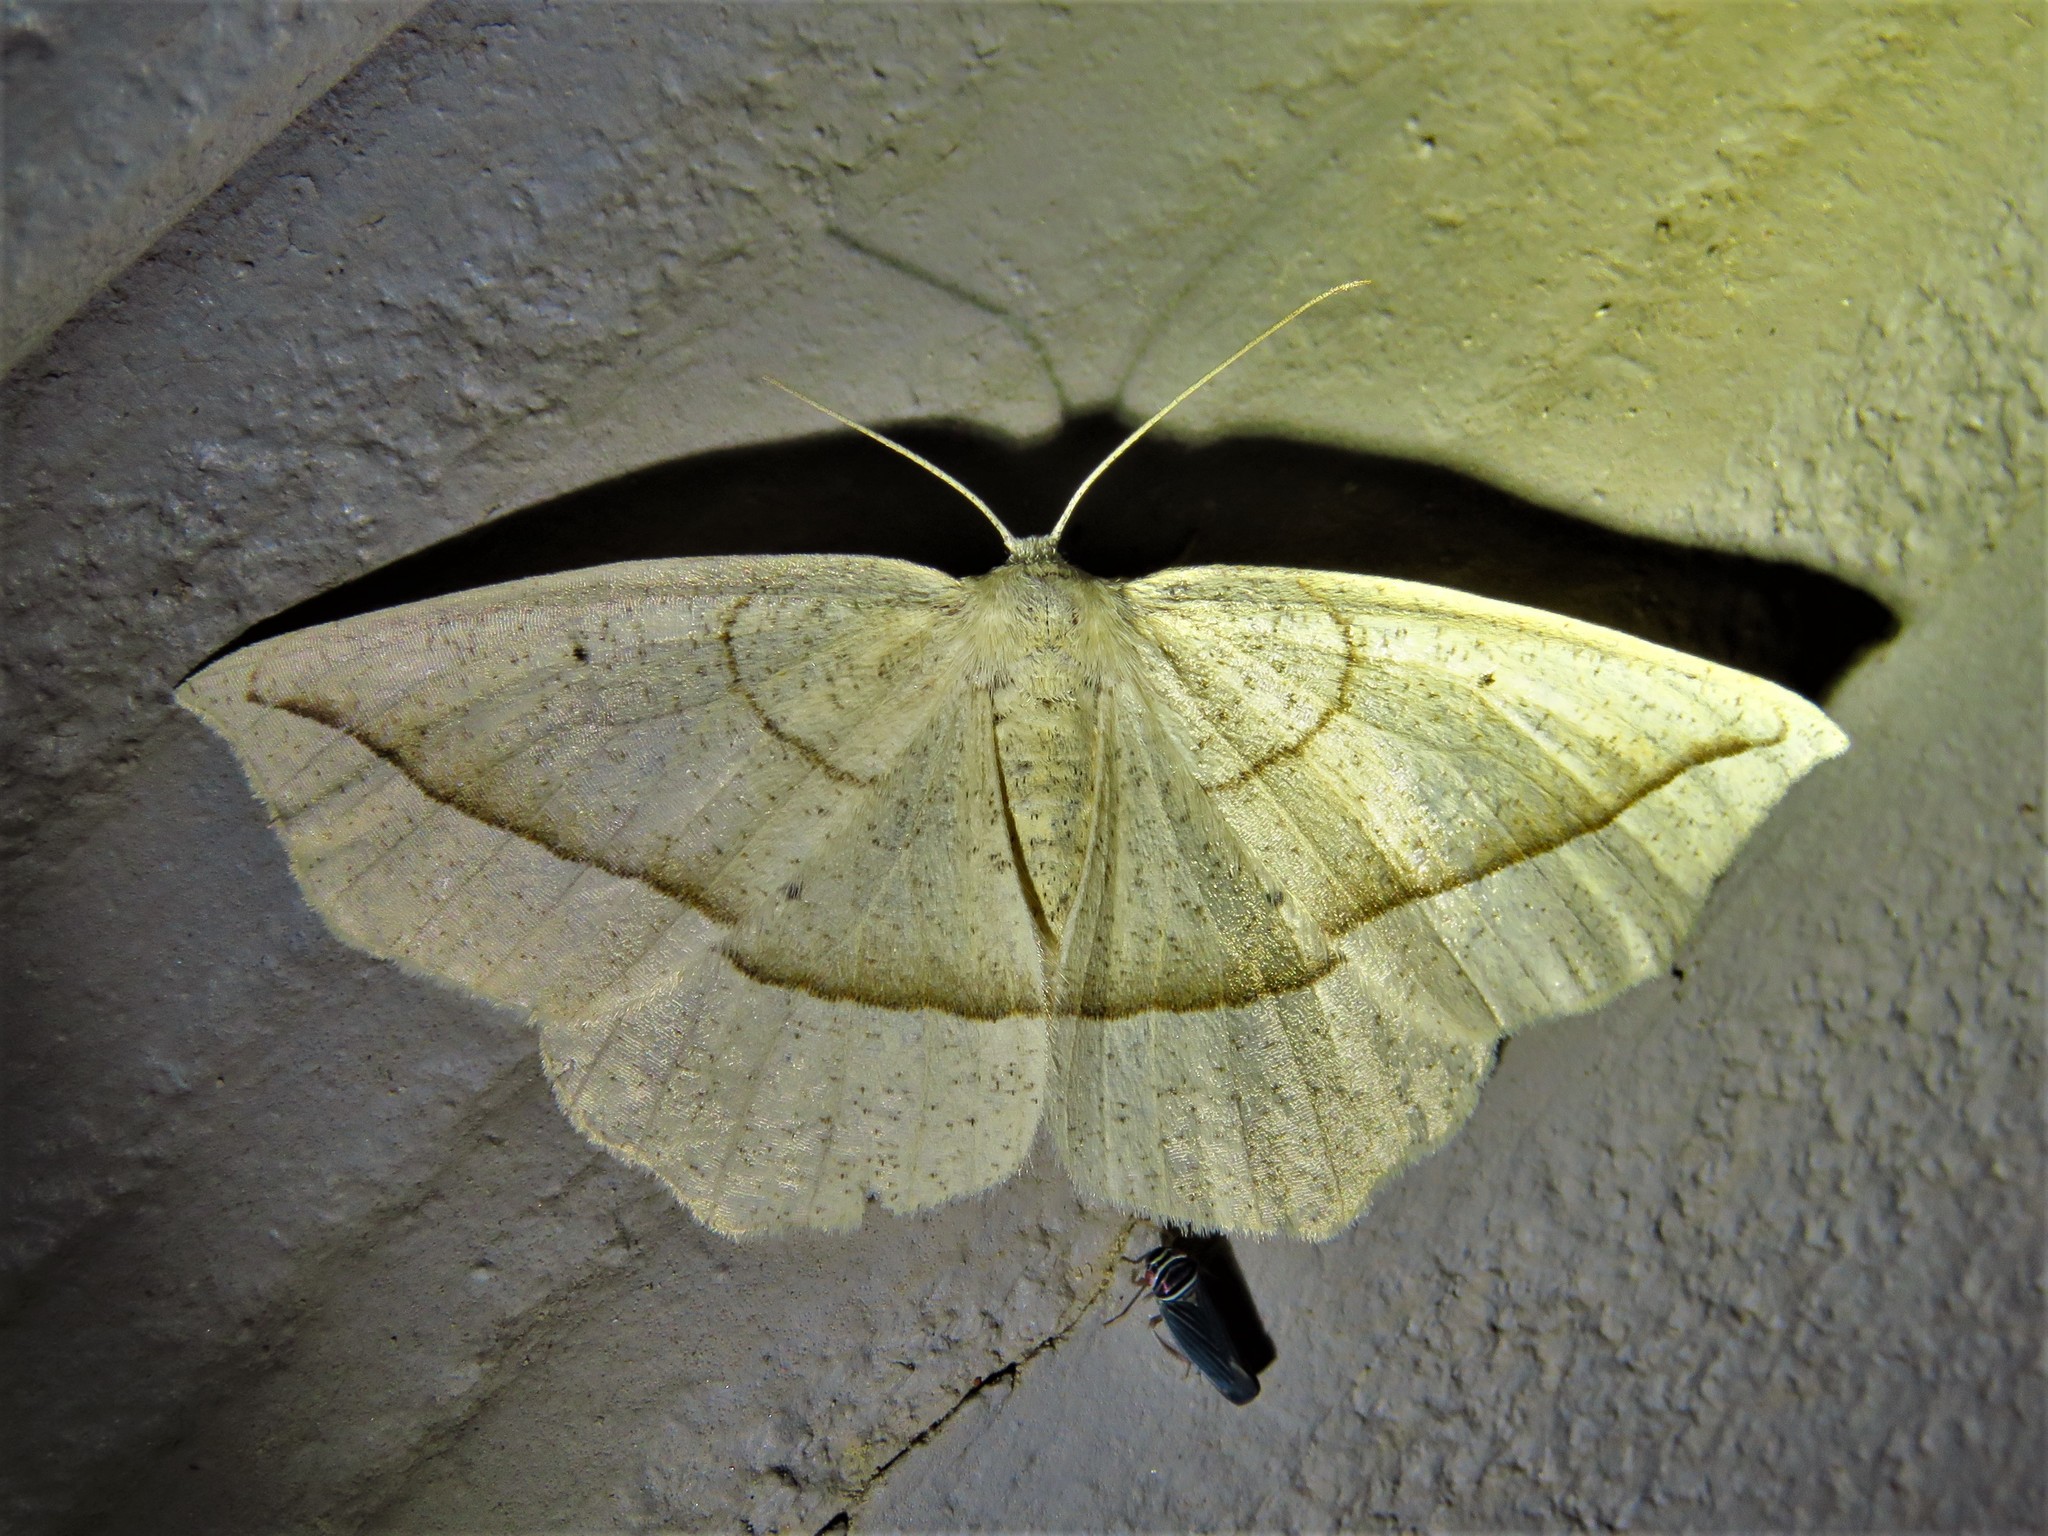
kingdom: Animalia
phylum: Arthropoda
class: Insecta
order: Lepidoptera
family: Geometridae
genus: Eusarca
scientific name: Eusarca confusaria
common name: Confused eusarca
